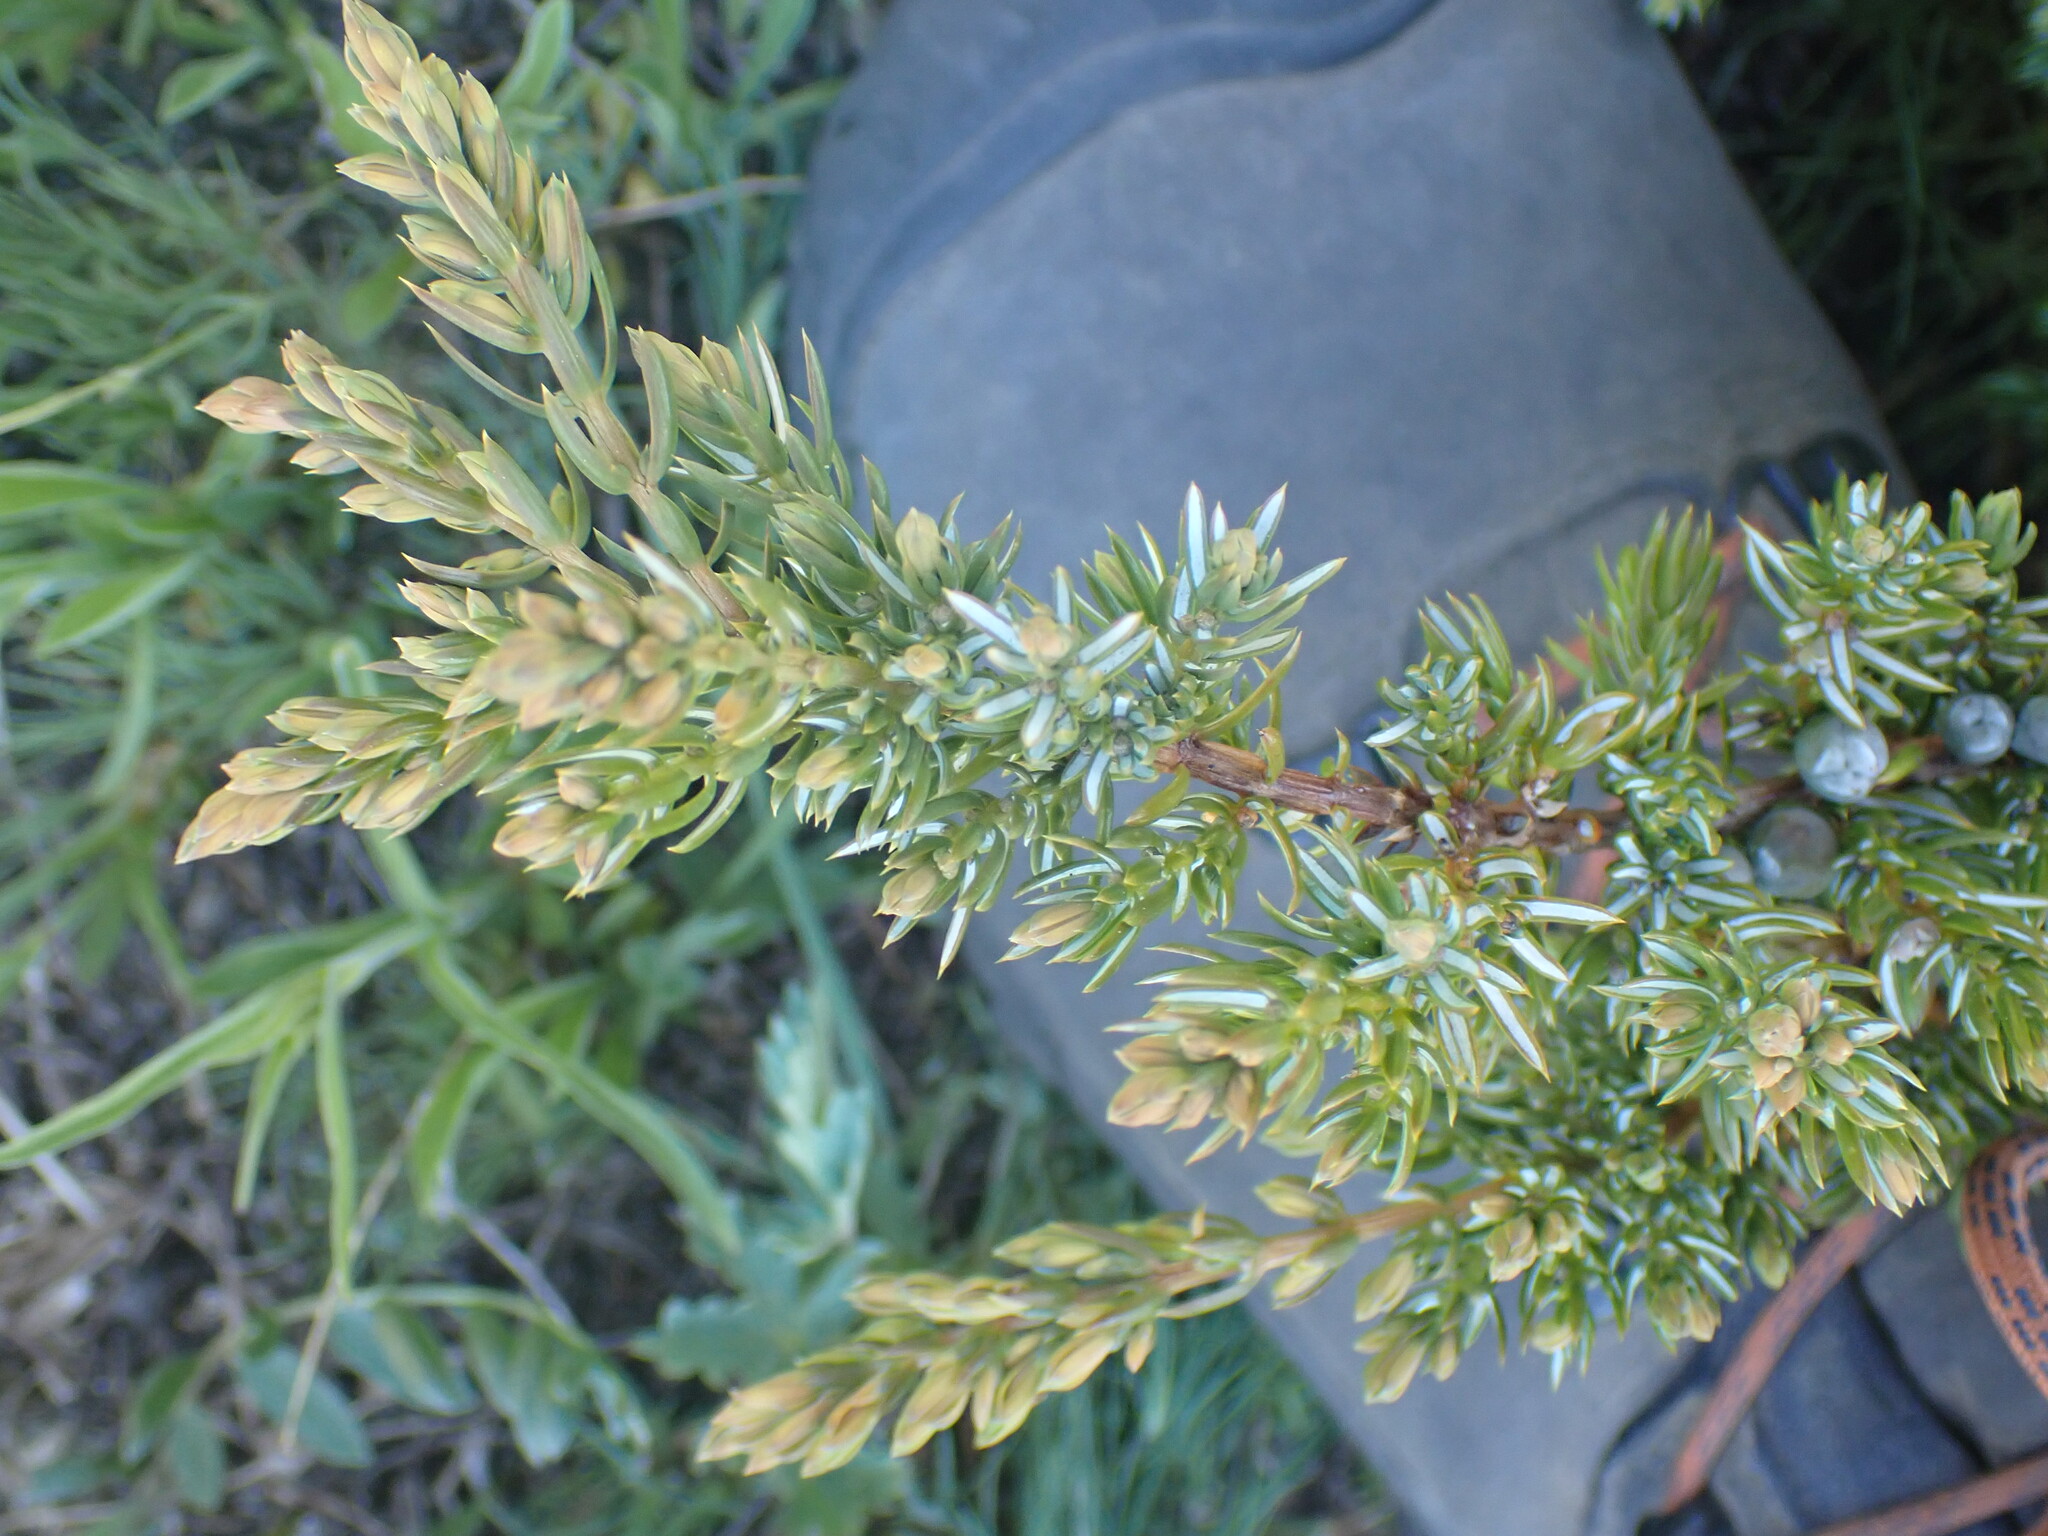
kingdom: Plantae
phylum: Tracheophyta
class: Pinopsida
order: Pinales
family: Cupressaceae
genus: Juniperus
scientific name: Juniperus communis
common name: Common juniper
